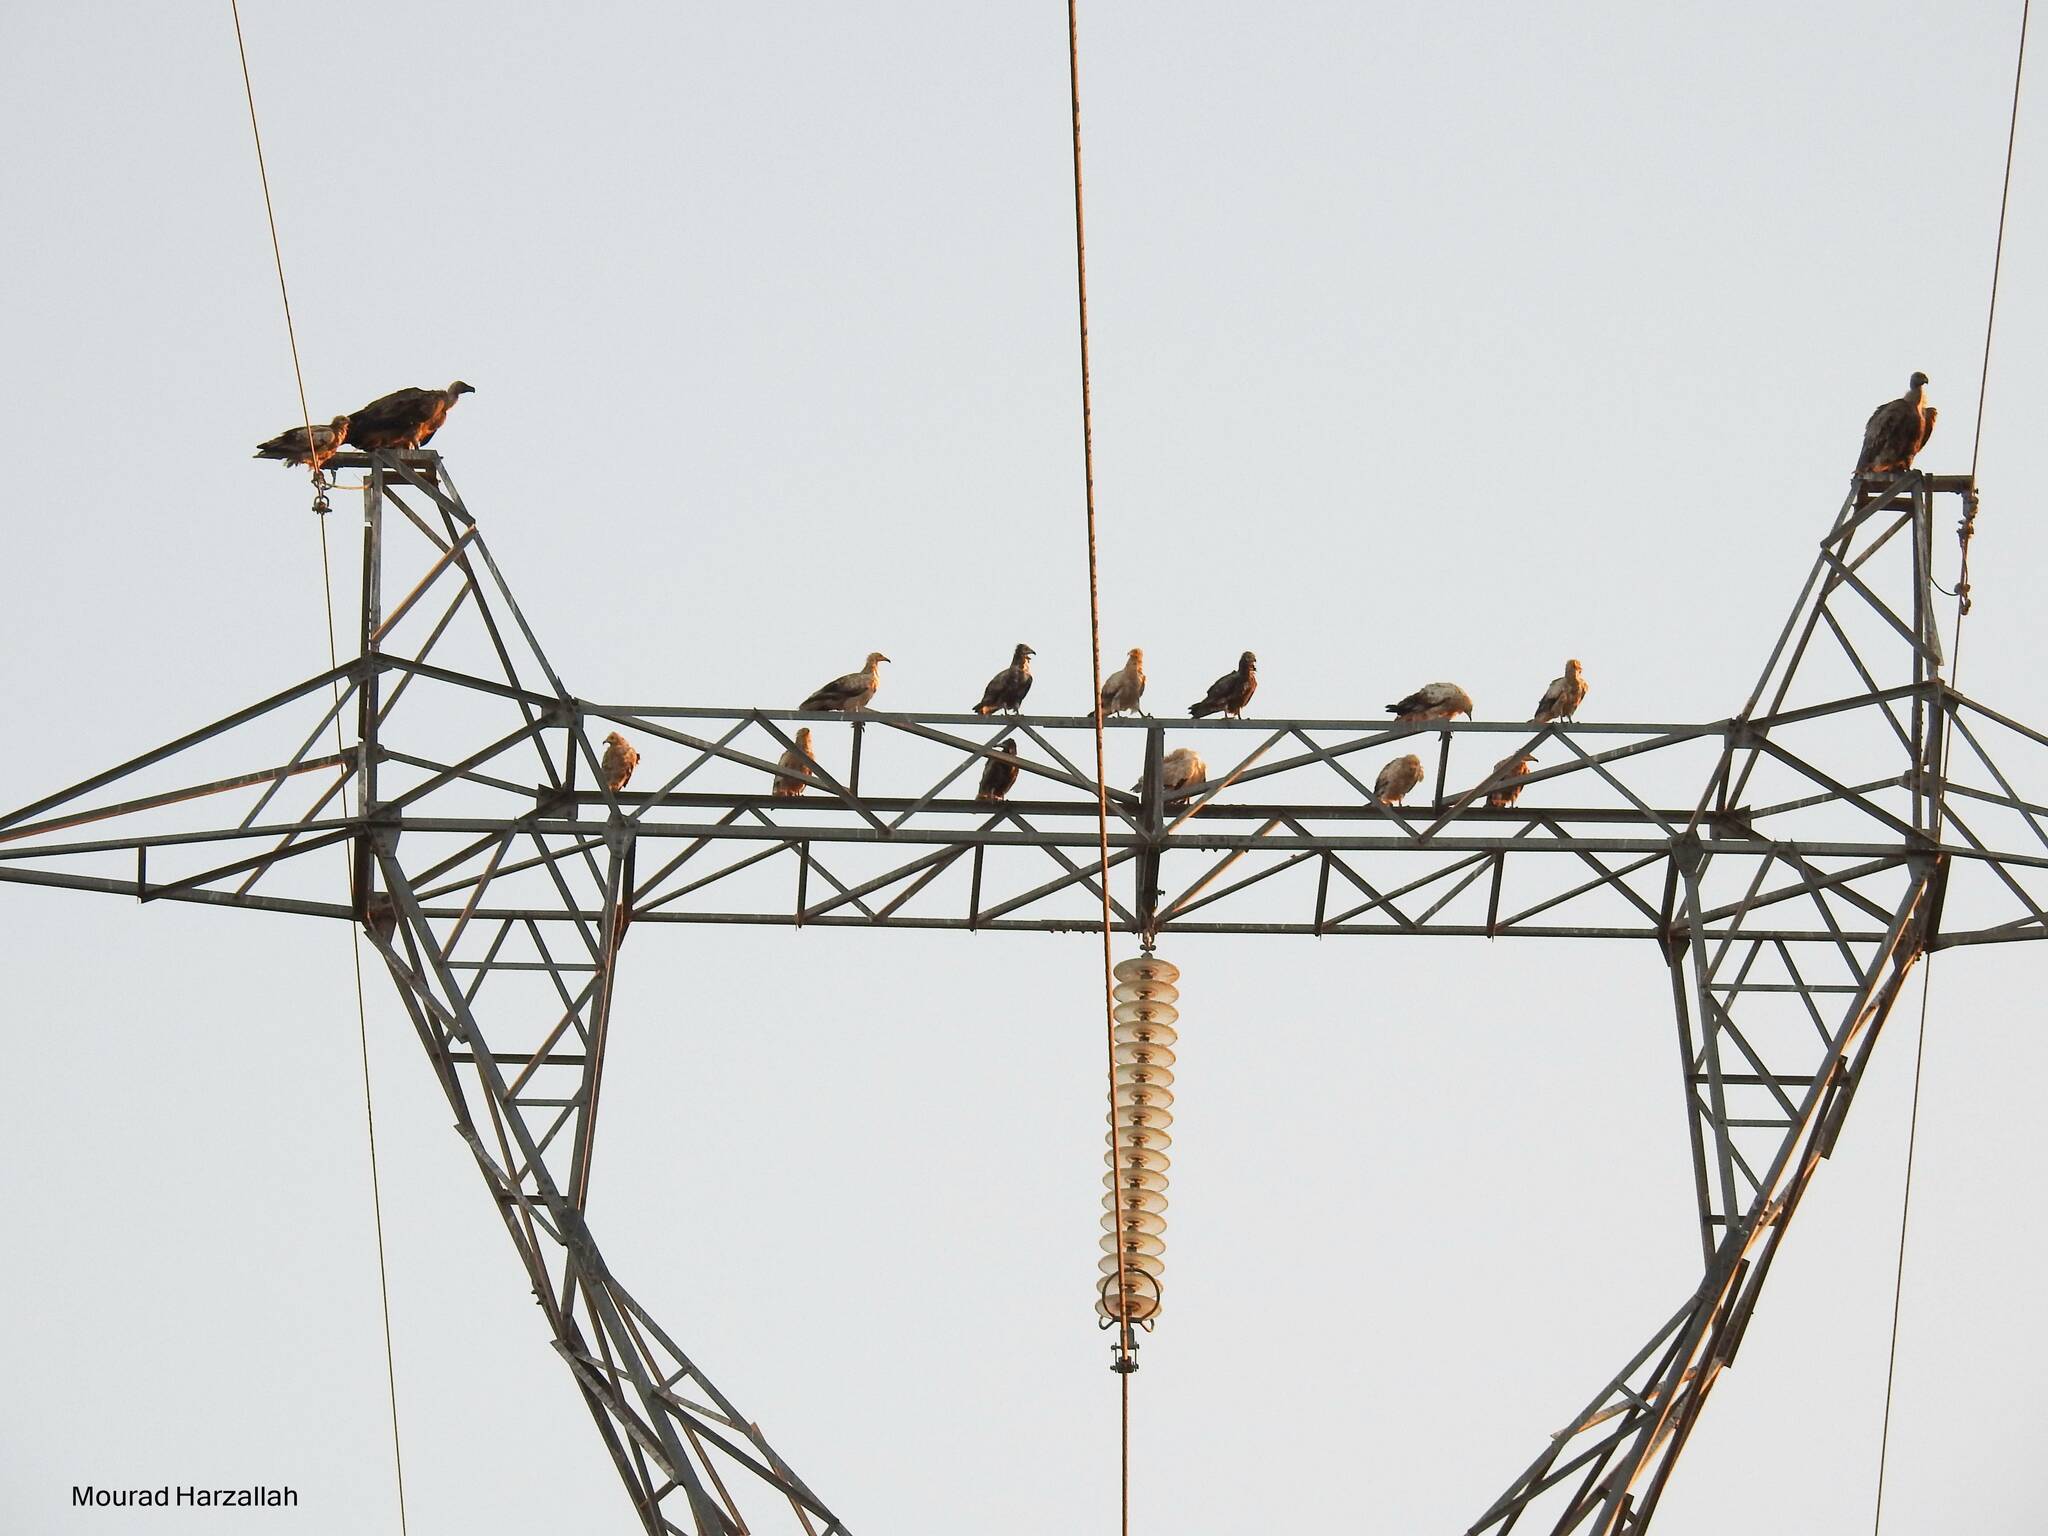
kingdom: Animalia
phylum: Chordata
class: Aves
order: Accipitriformes
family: Accipitridae
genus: Neophron
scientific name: Neophron percnopterus
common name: Egyptian vulture
